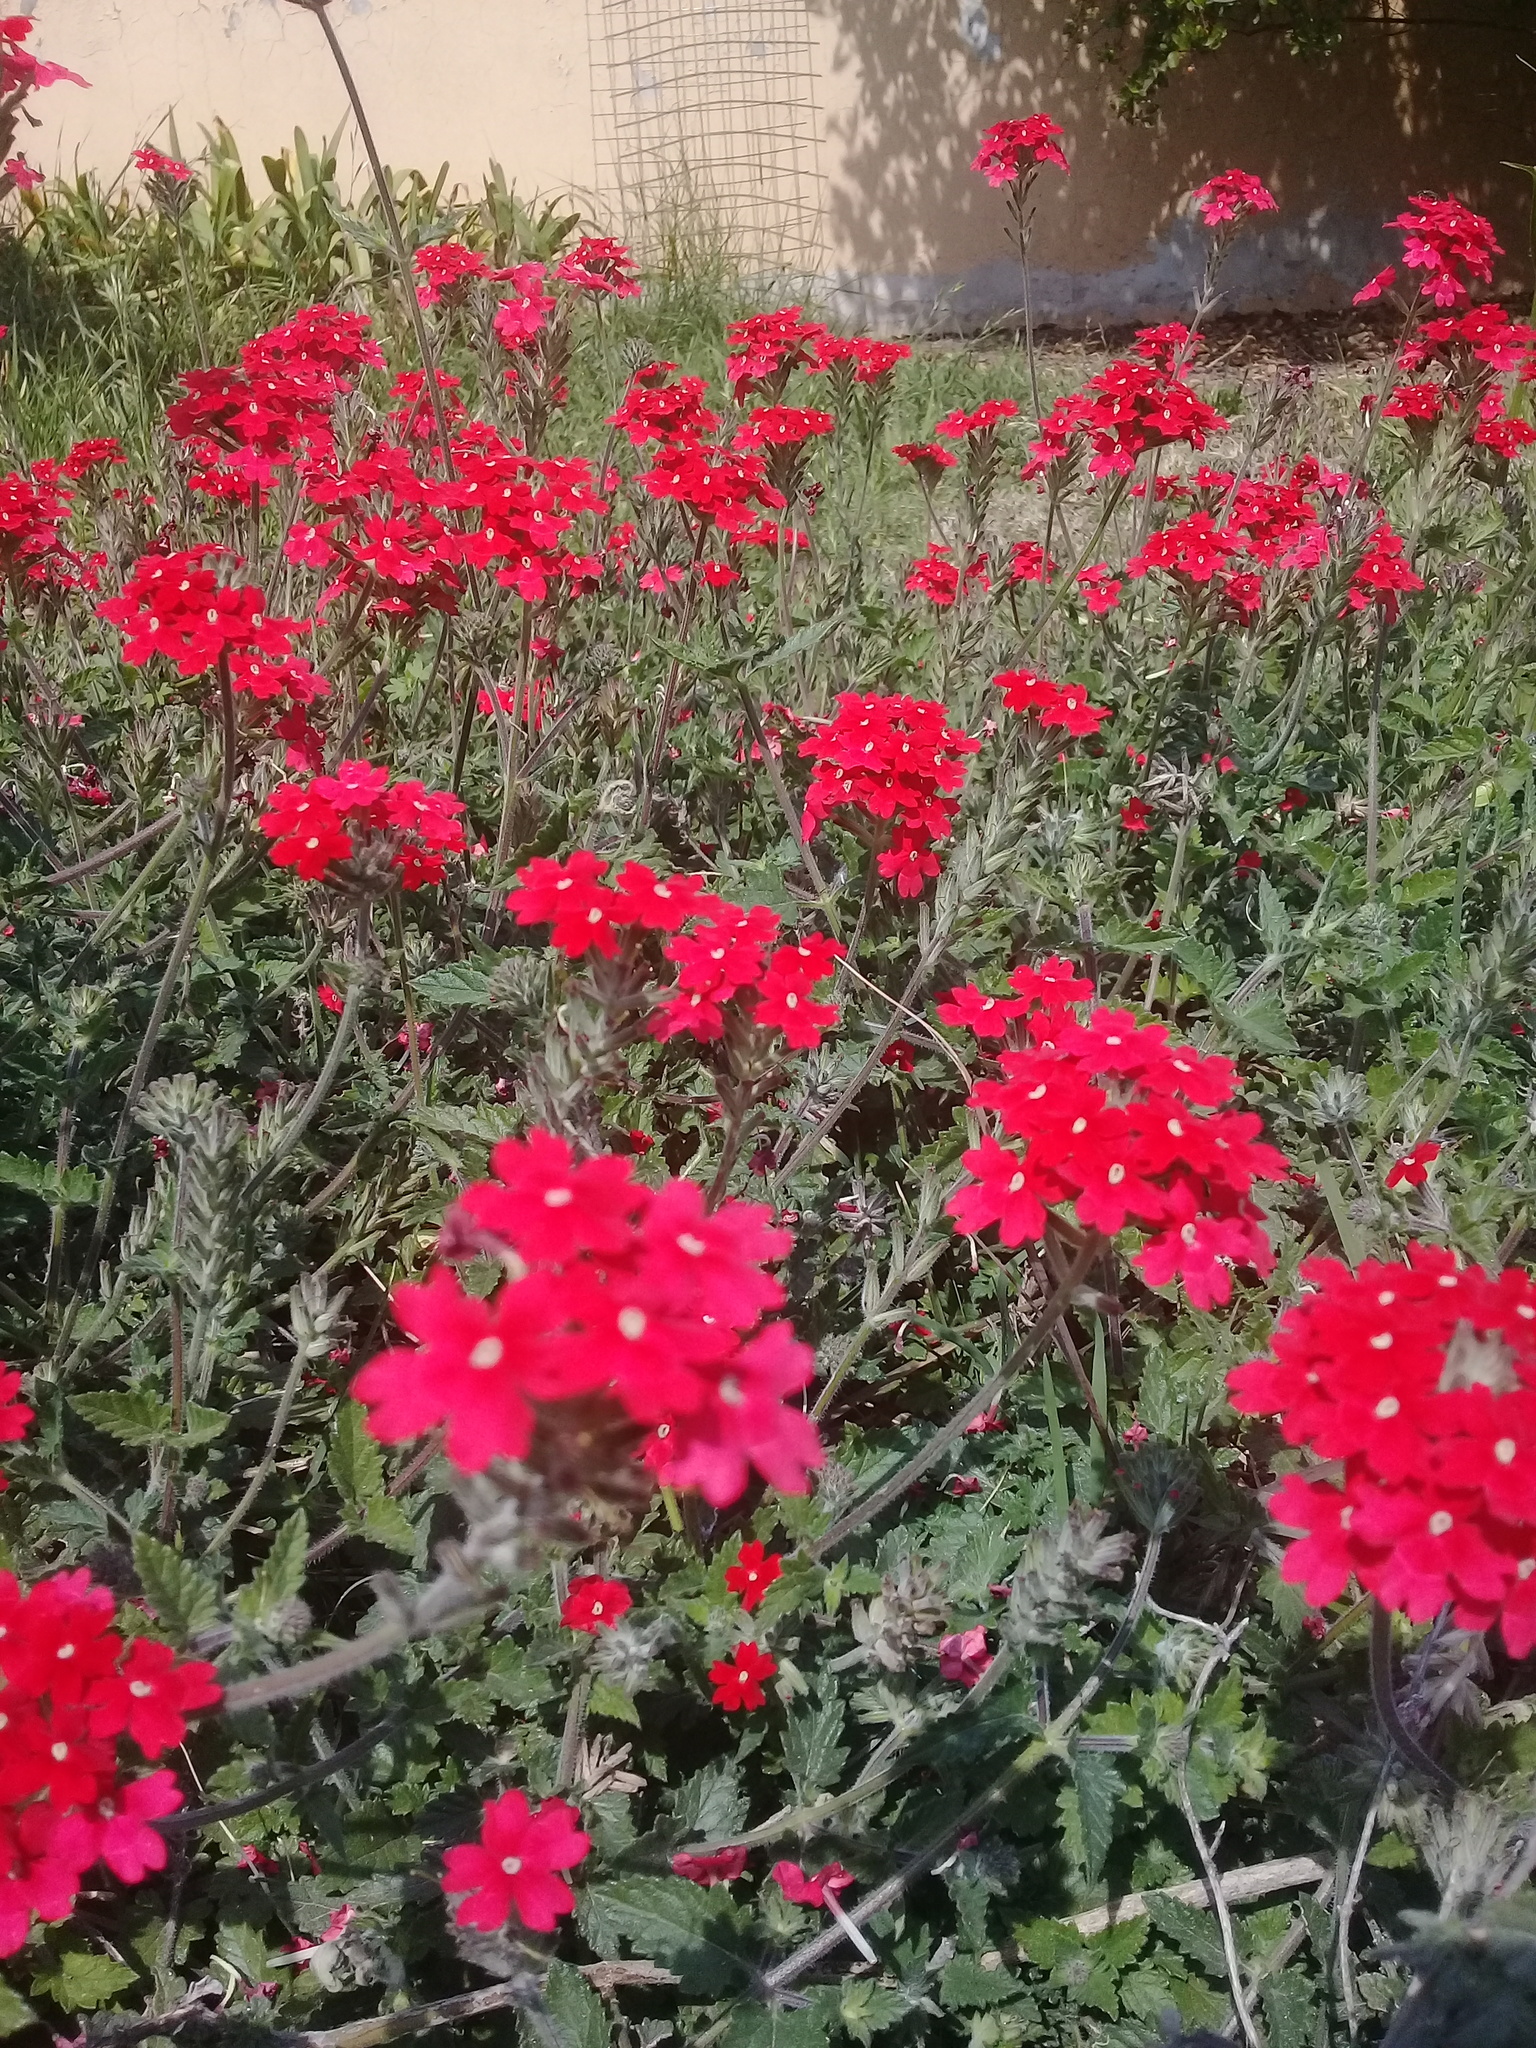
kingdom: Plantae
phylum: Tracheophyta
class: Magnoliopsida
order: Lamiales
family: Verbenaceae
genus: Verbena
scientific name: Verbena tweedieana
